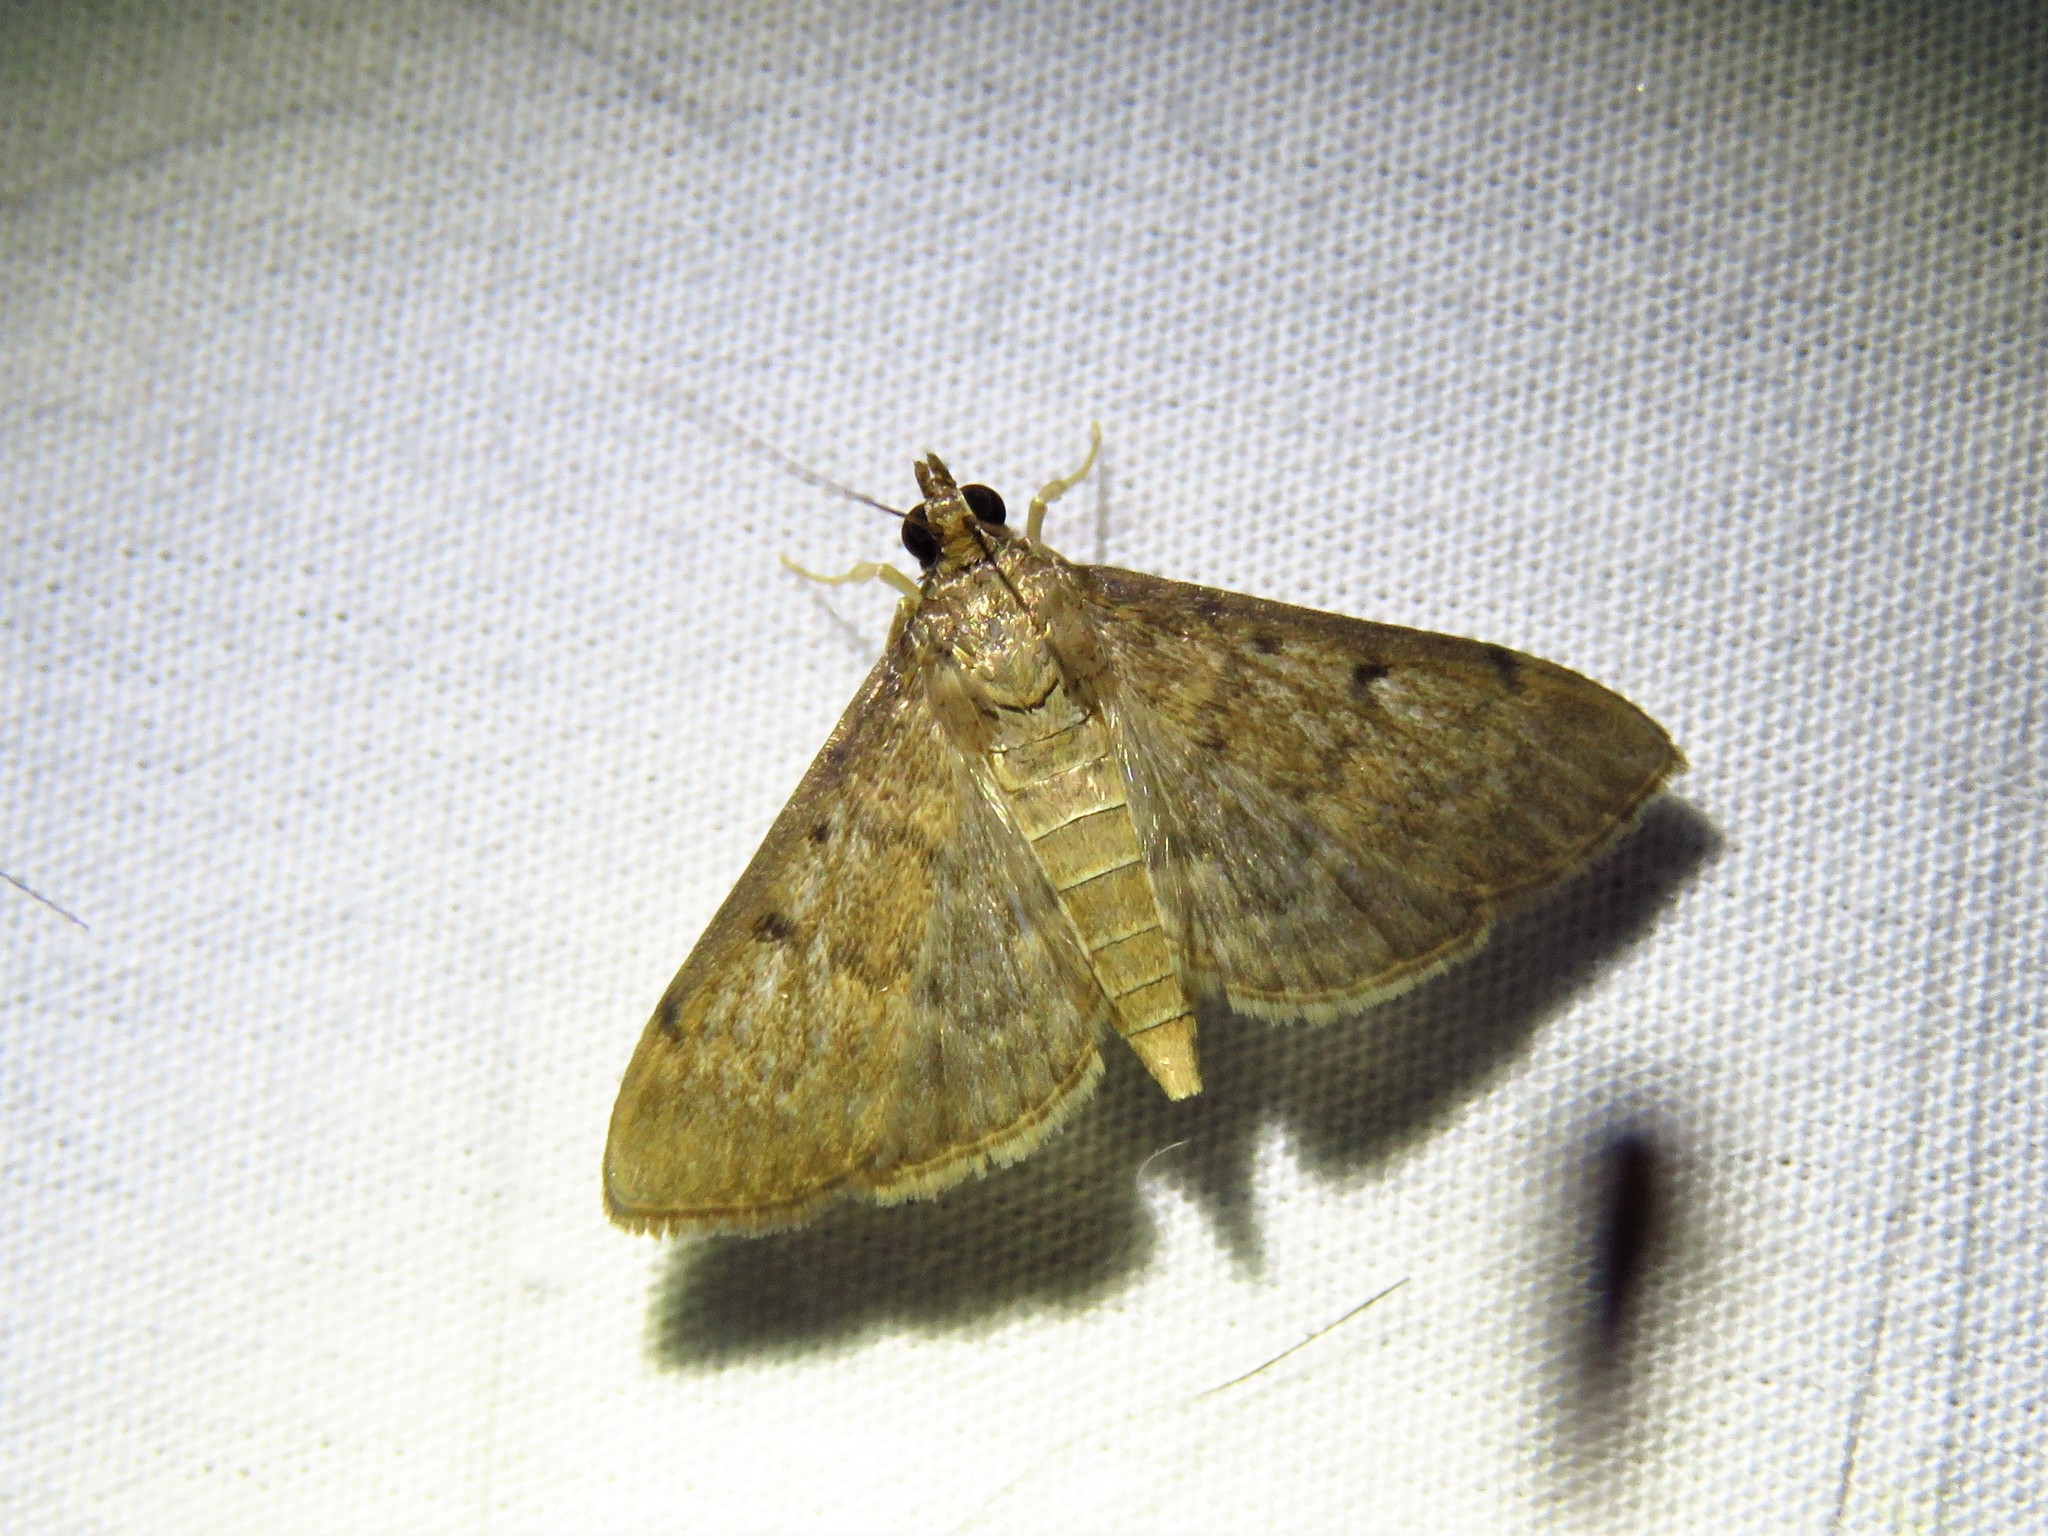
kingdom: Animalia
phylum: Arthropoda
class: Insecta
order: Lepidoptera
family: Crambidae
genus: Herpetogramma
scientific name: Herpetogramma phaeopteralis
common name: Dusky herpetogramma moth
